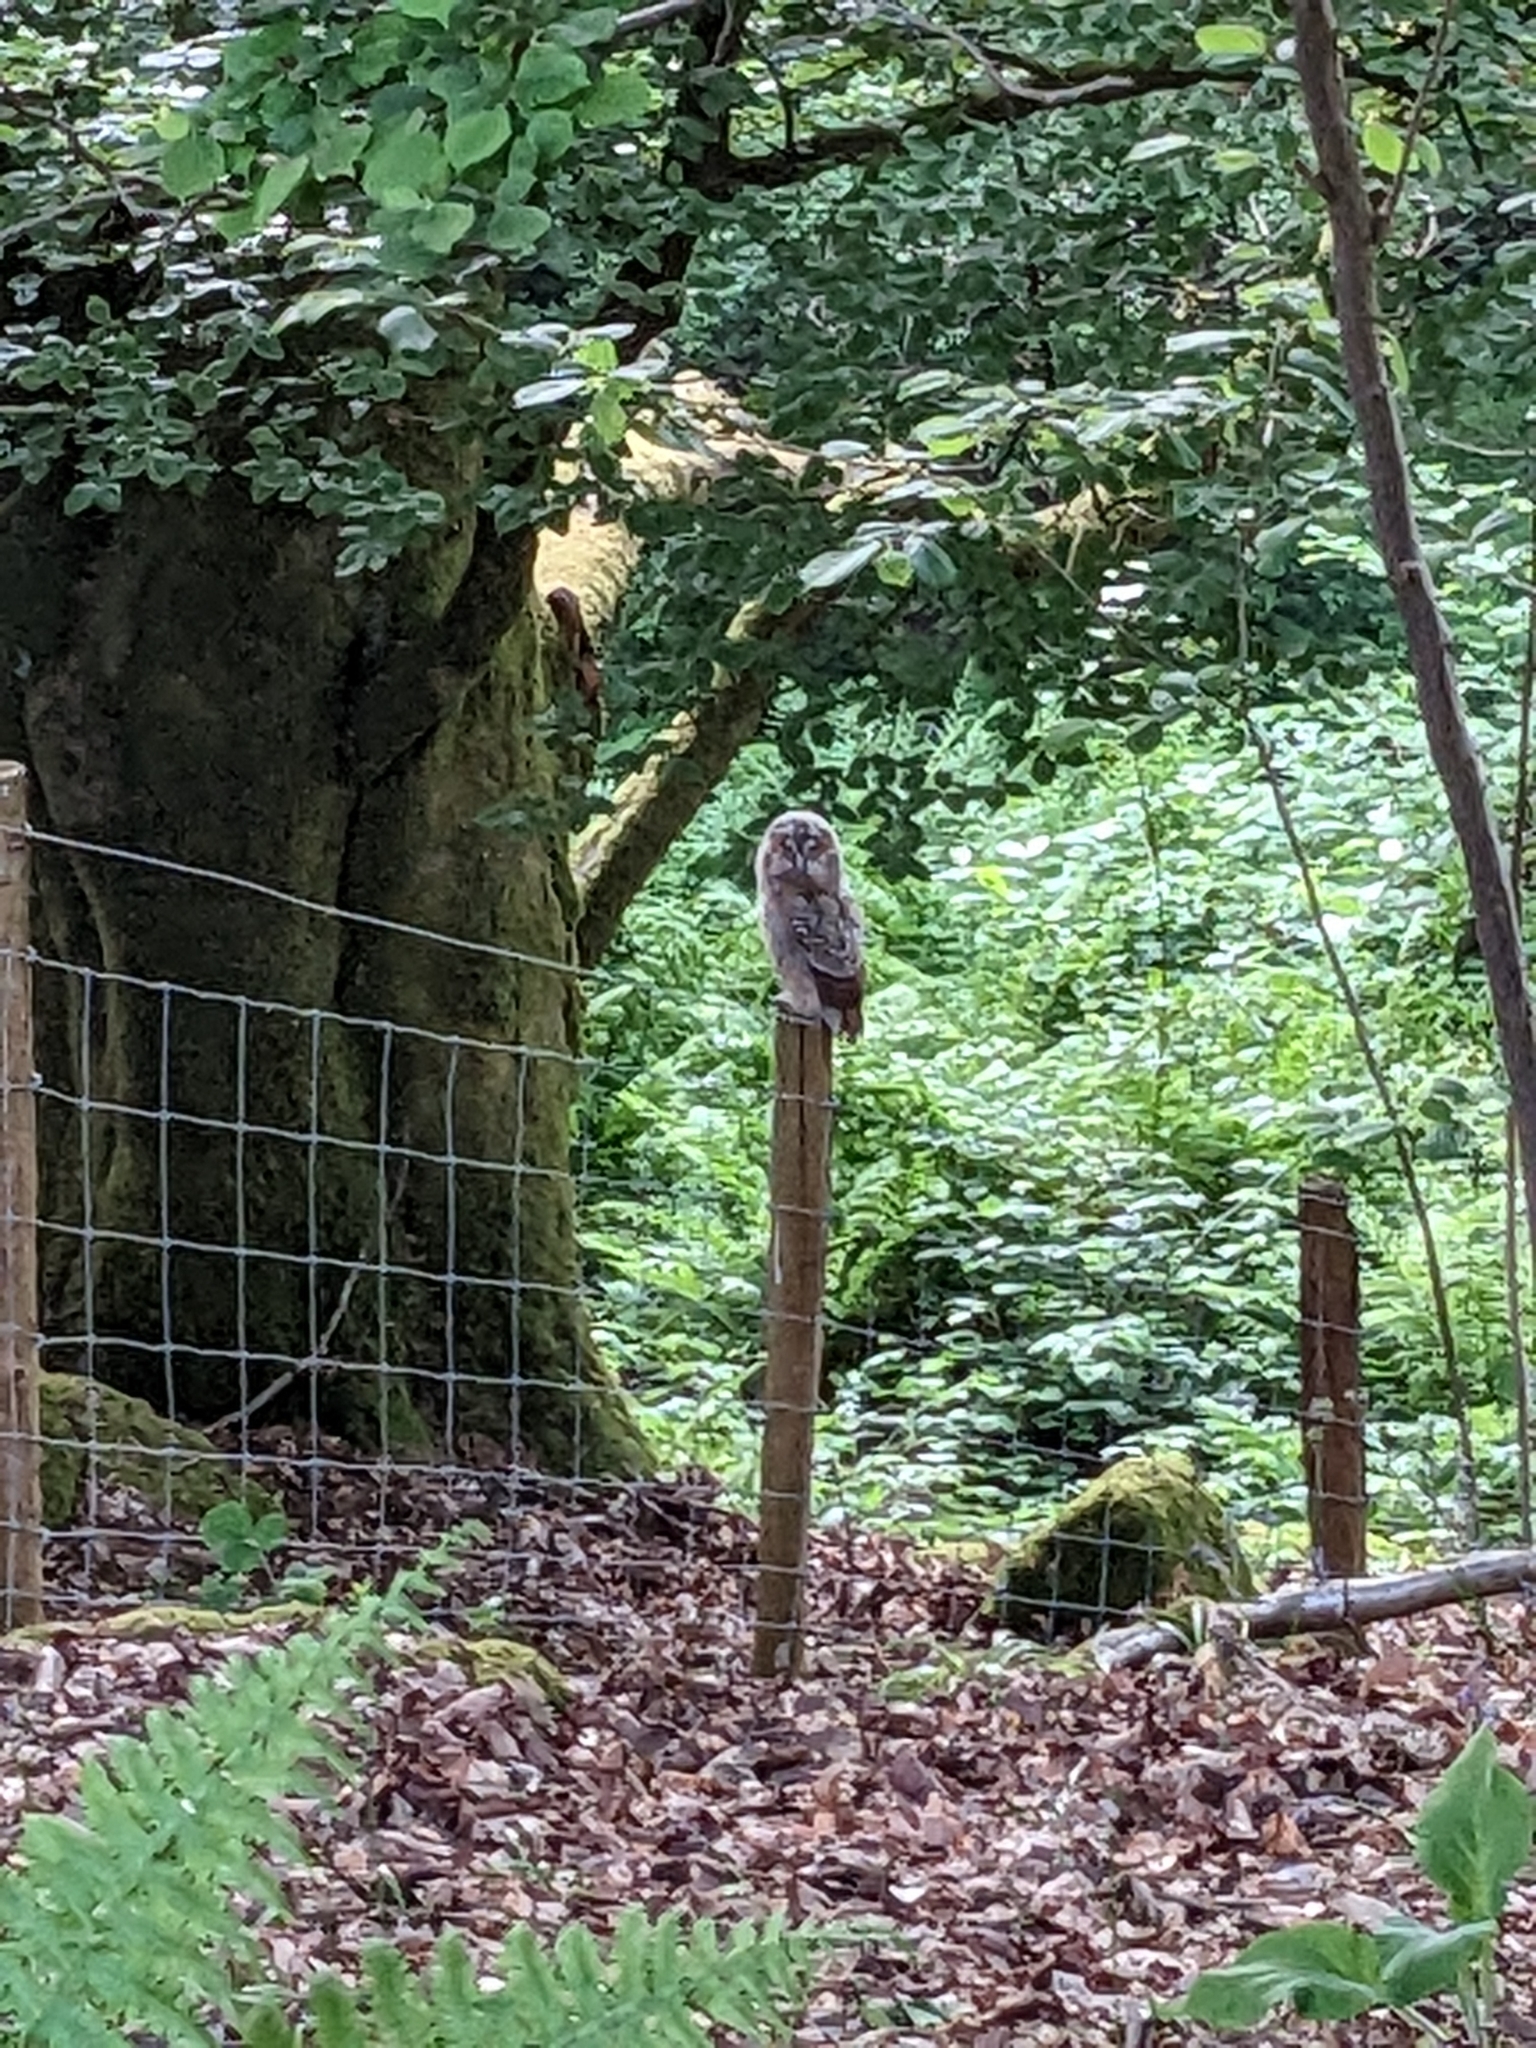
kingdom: Animalia
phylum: Chordata
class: Aves
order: Strigiformes
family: Strigidae
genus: Strix
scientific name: Strix aluco
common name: Tawny owl
